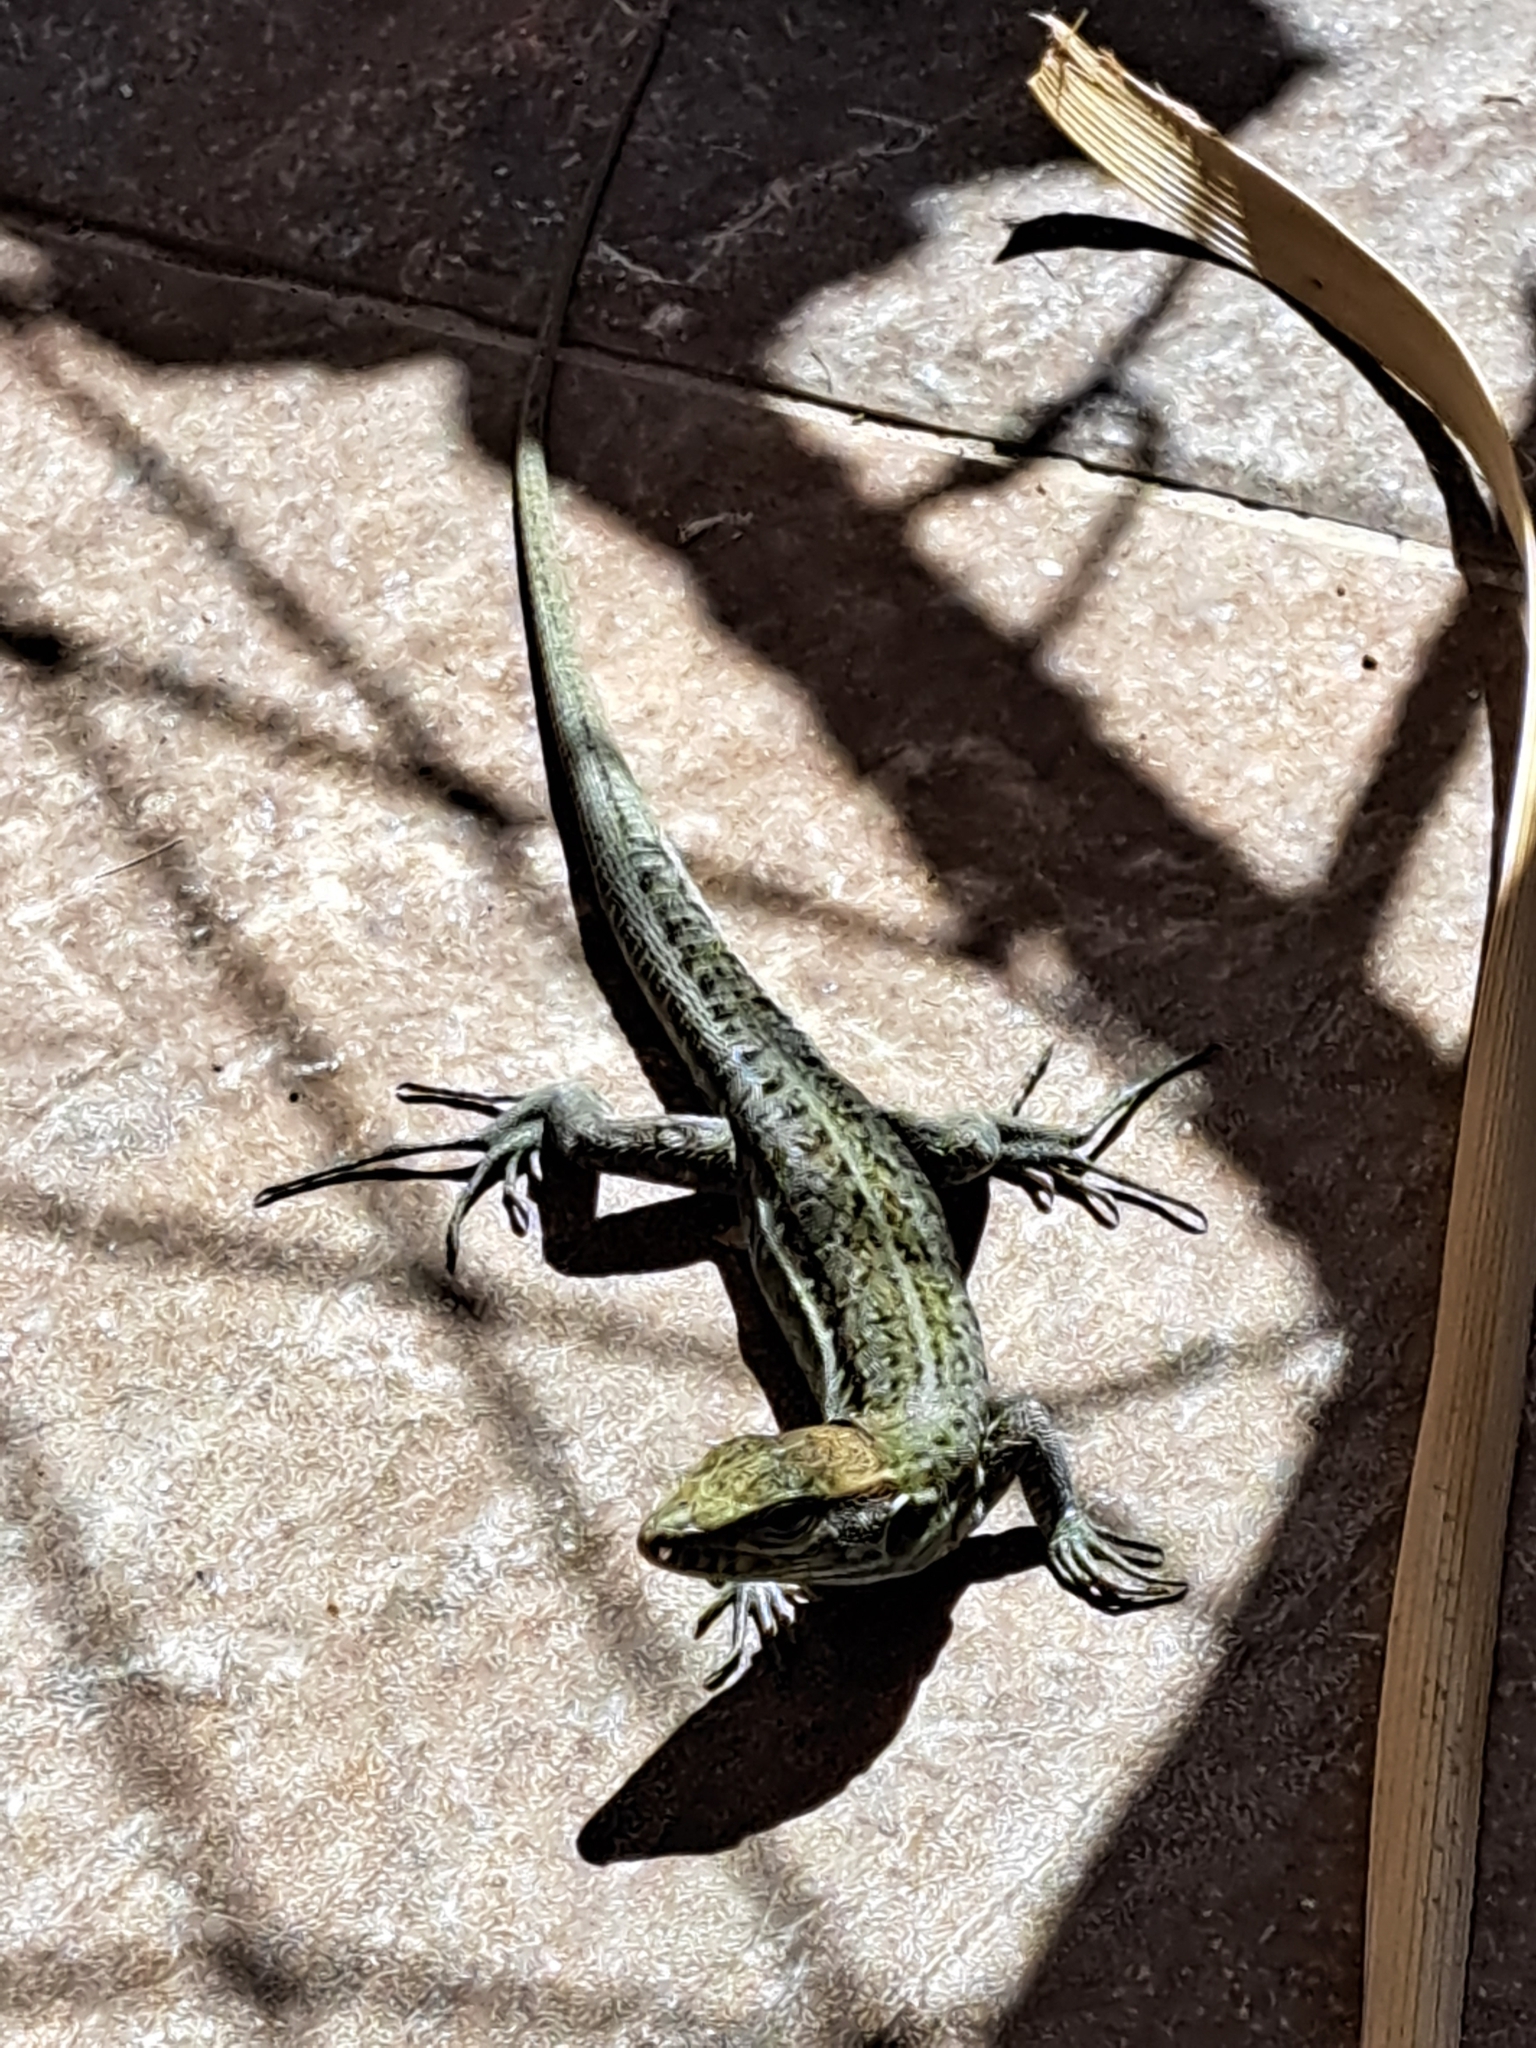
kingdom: Animalia
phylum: Chordata
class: Squamata
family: Lacertidae
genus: Gallotia
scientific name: Gallotia galloti
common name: Gallot's lizard
